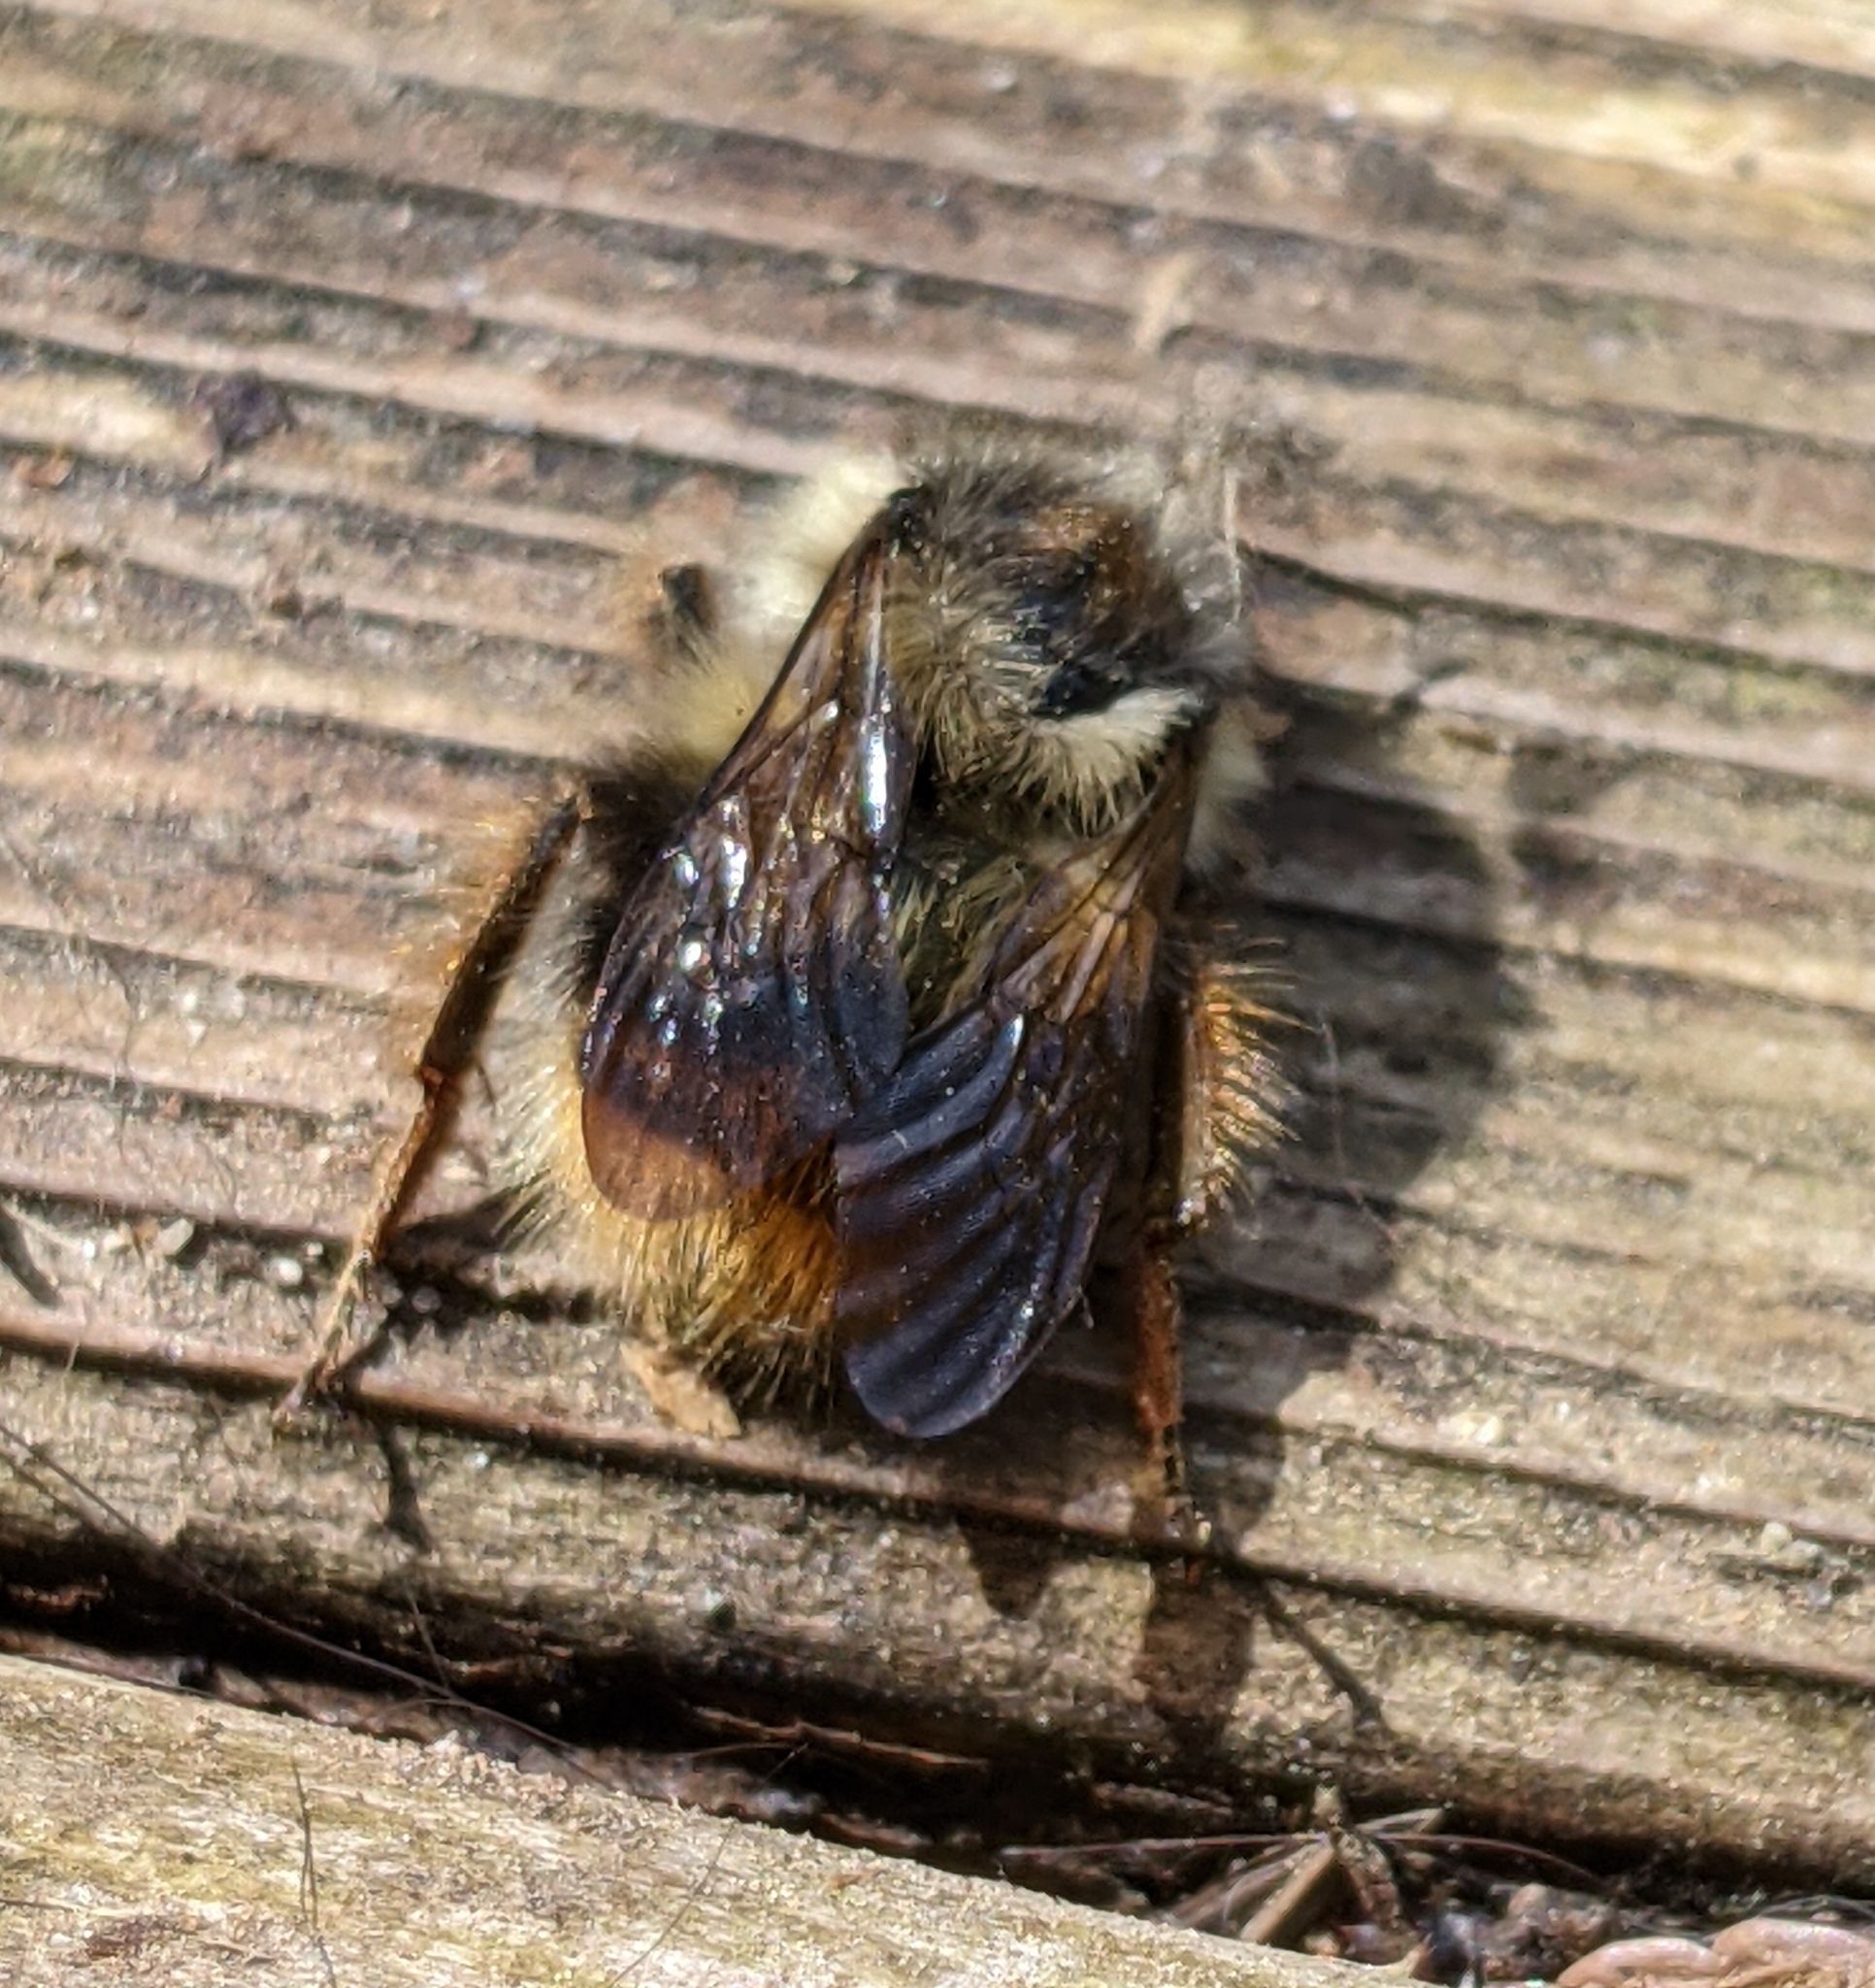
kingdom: Animalia
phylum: Arthropoda
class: Insecta
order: Hymenoptera
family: Apidae
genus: Bombus
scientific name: Bombus mixtus
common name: Fuzzy-horned bumble bee
